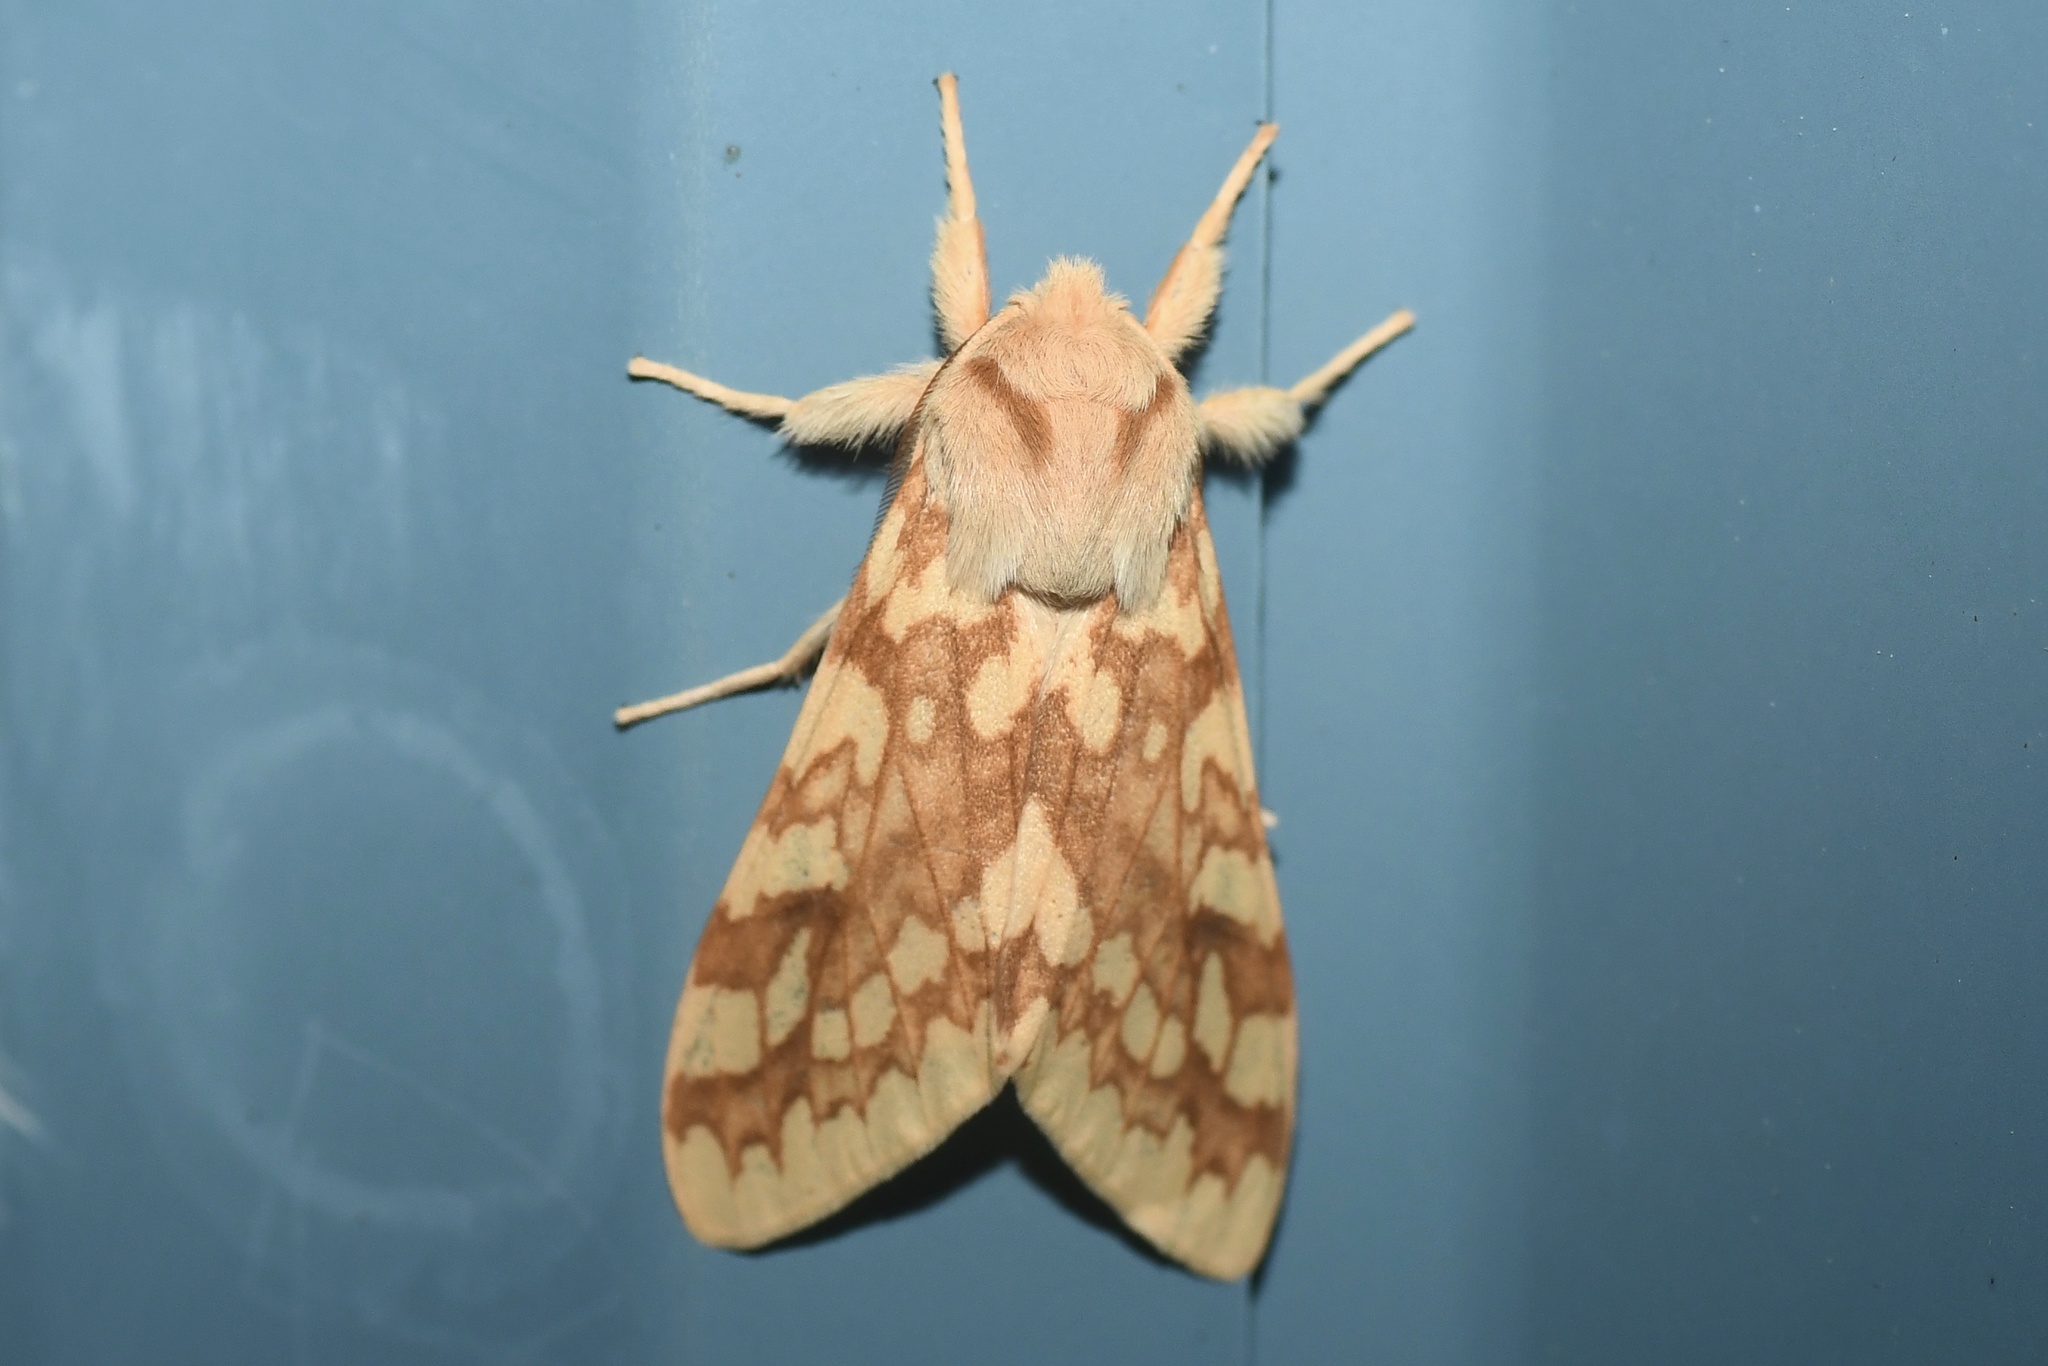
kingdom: Animalia
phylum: Arthropoda
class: Insecta
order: Lepidoptera
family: Erebidae
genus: Lophocampa
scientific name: Lophocampa maculata
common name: Spotted tussock moth
